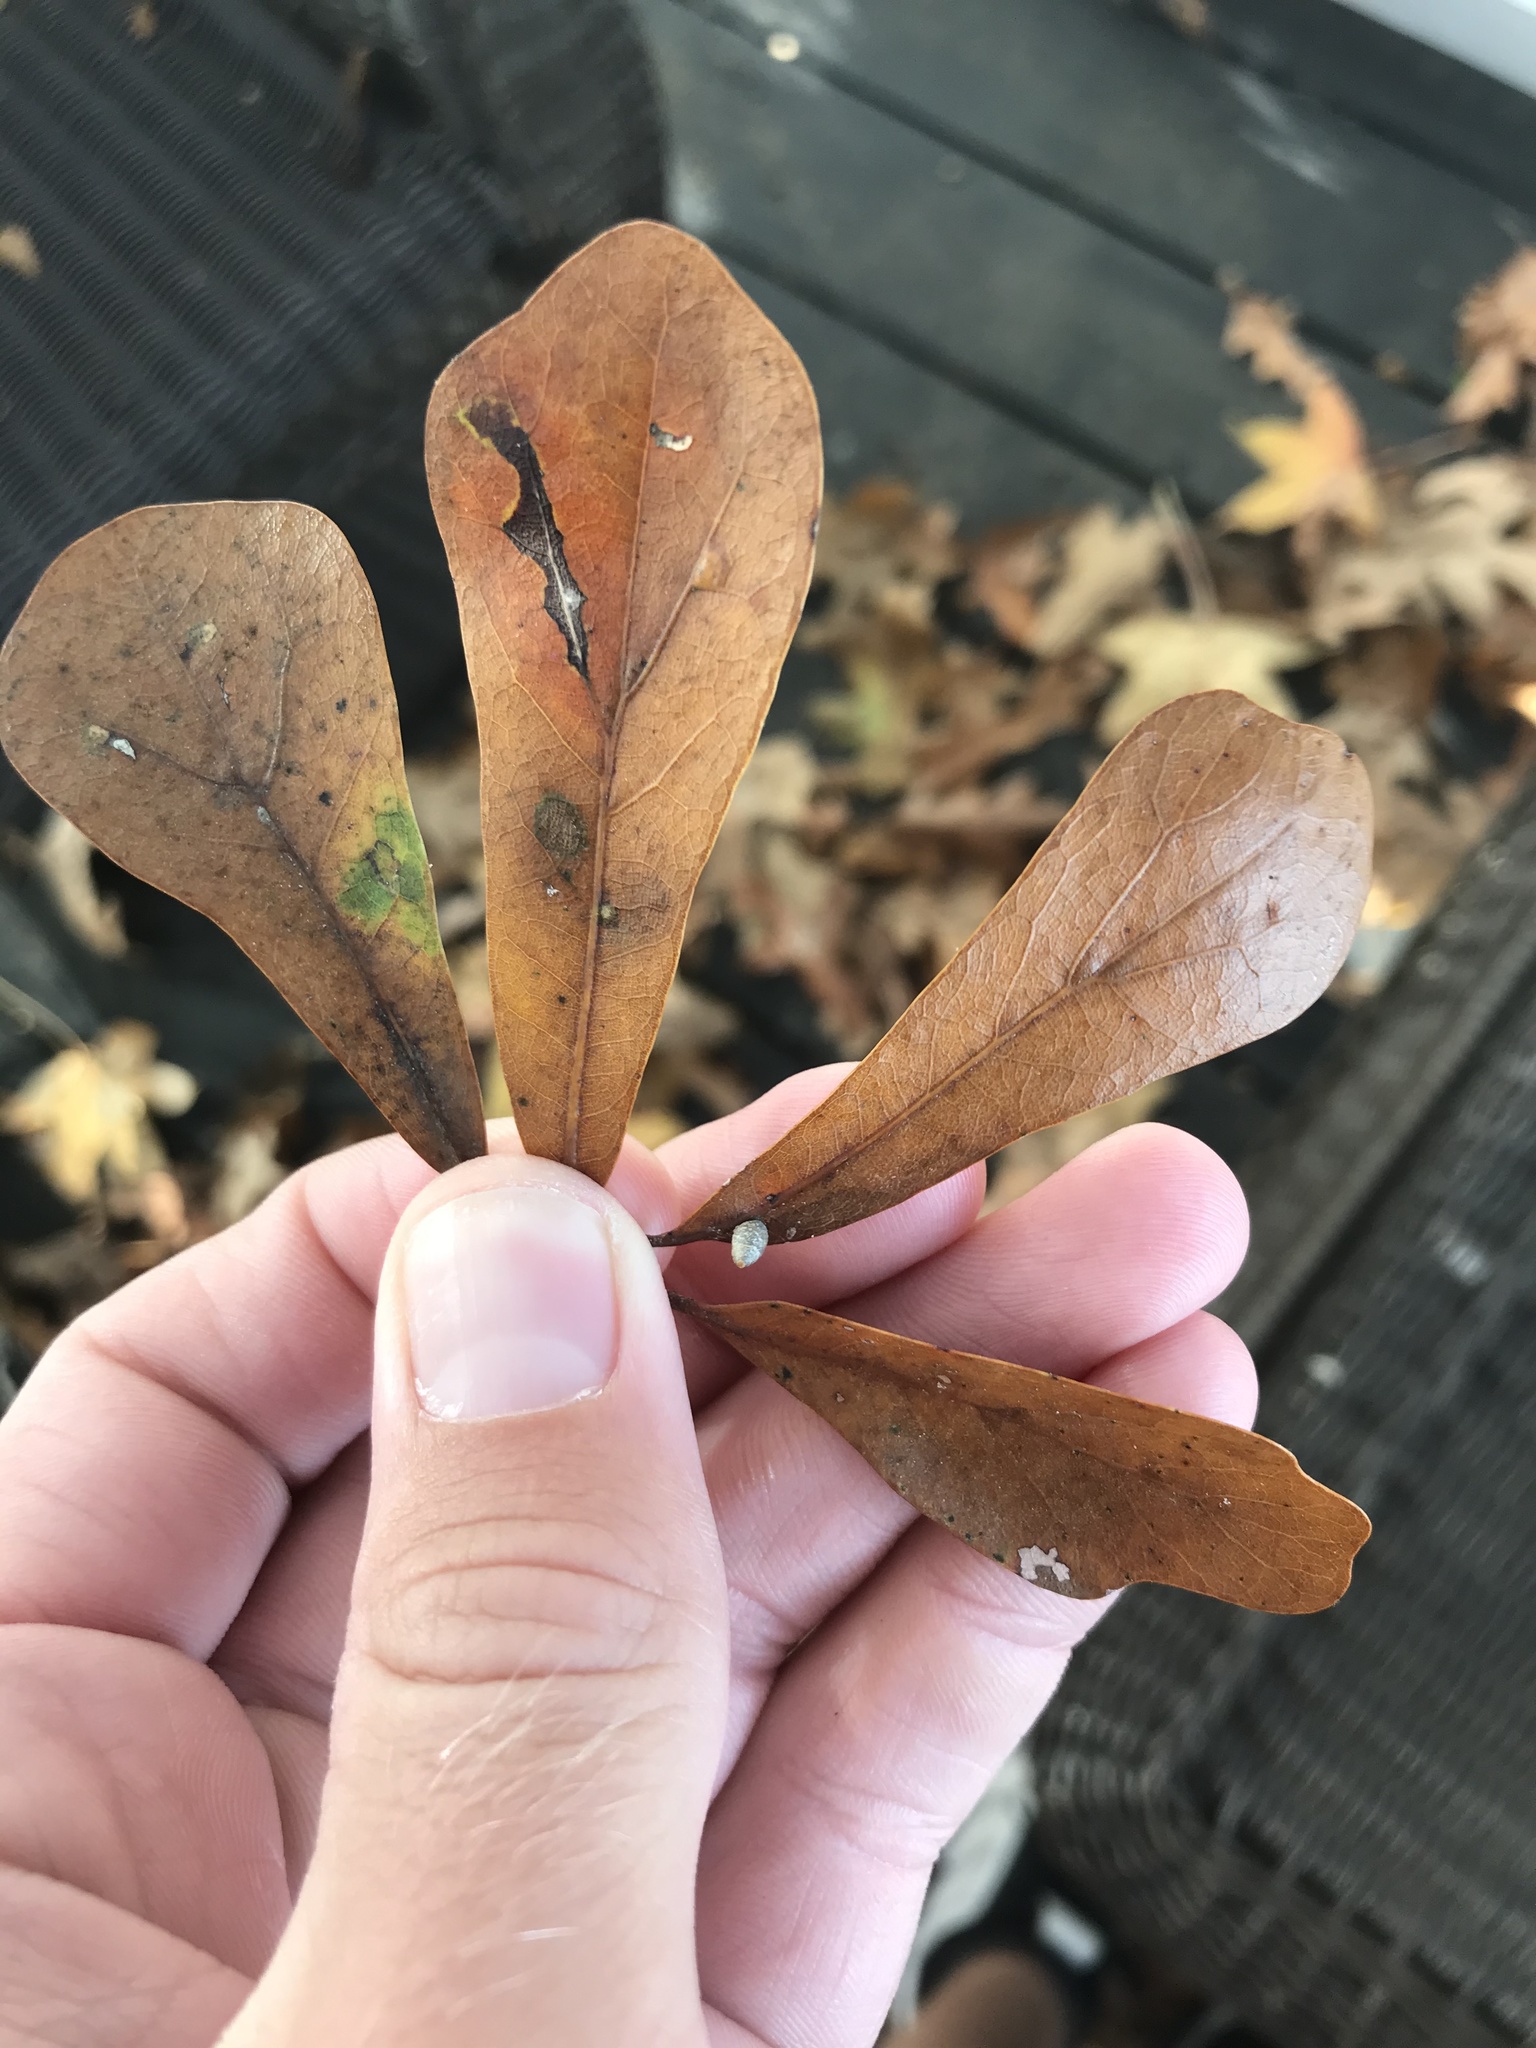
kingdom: Plantae
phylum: Tracheophyta
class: Magnoliopsida
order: Fagales
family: Fagaceae
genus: Quercus
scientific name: Quercus nigra
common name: Water oak
